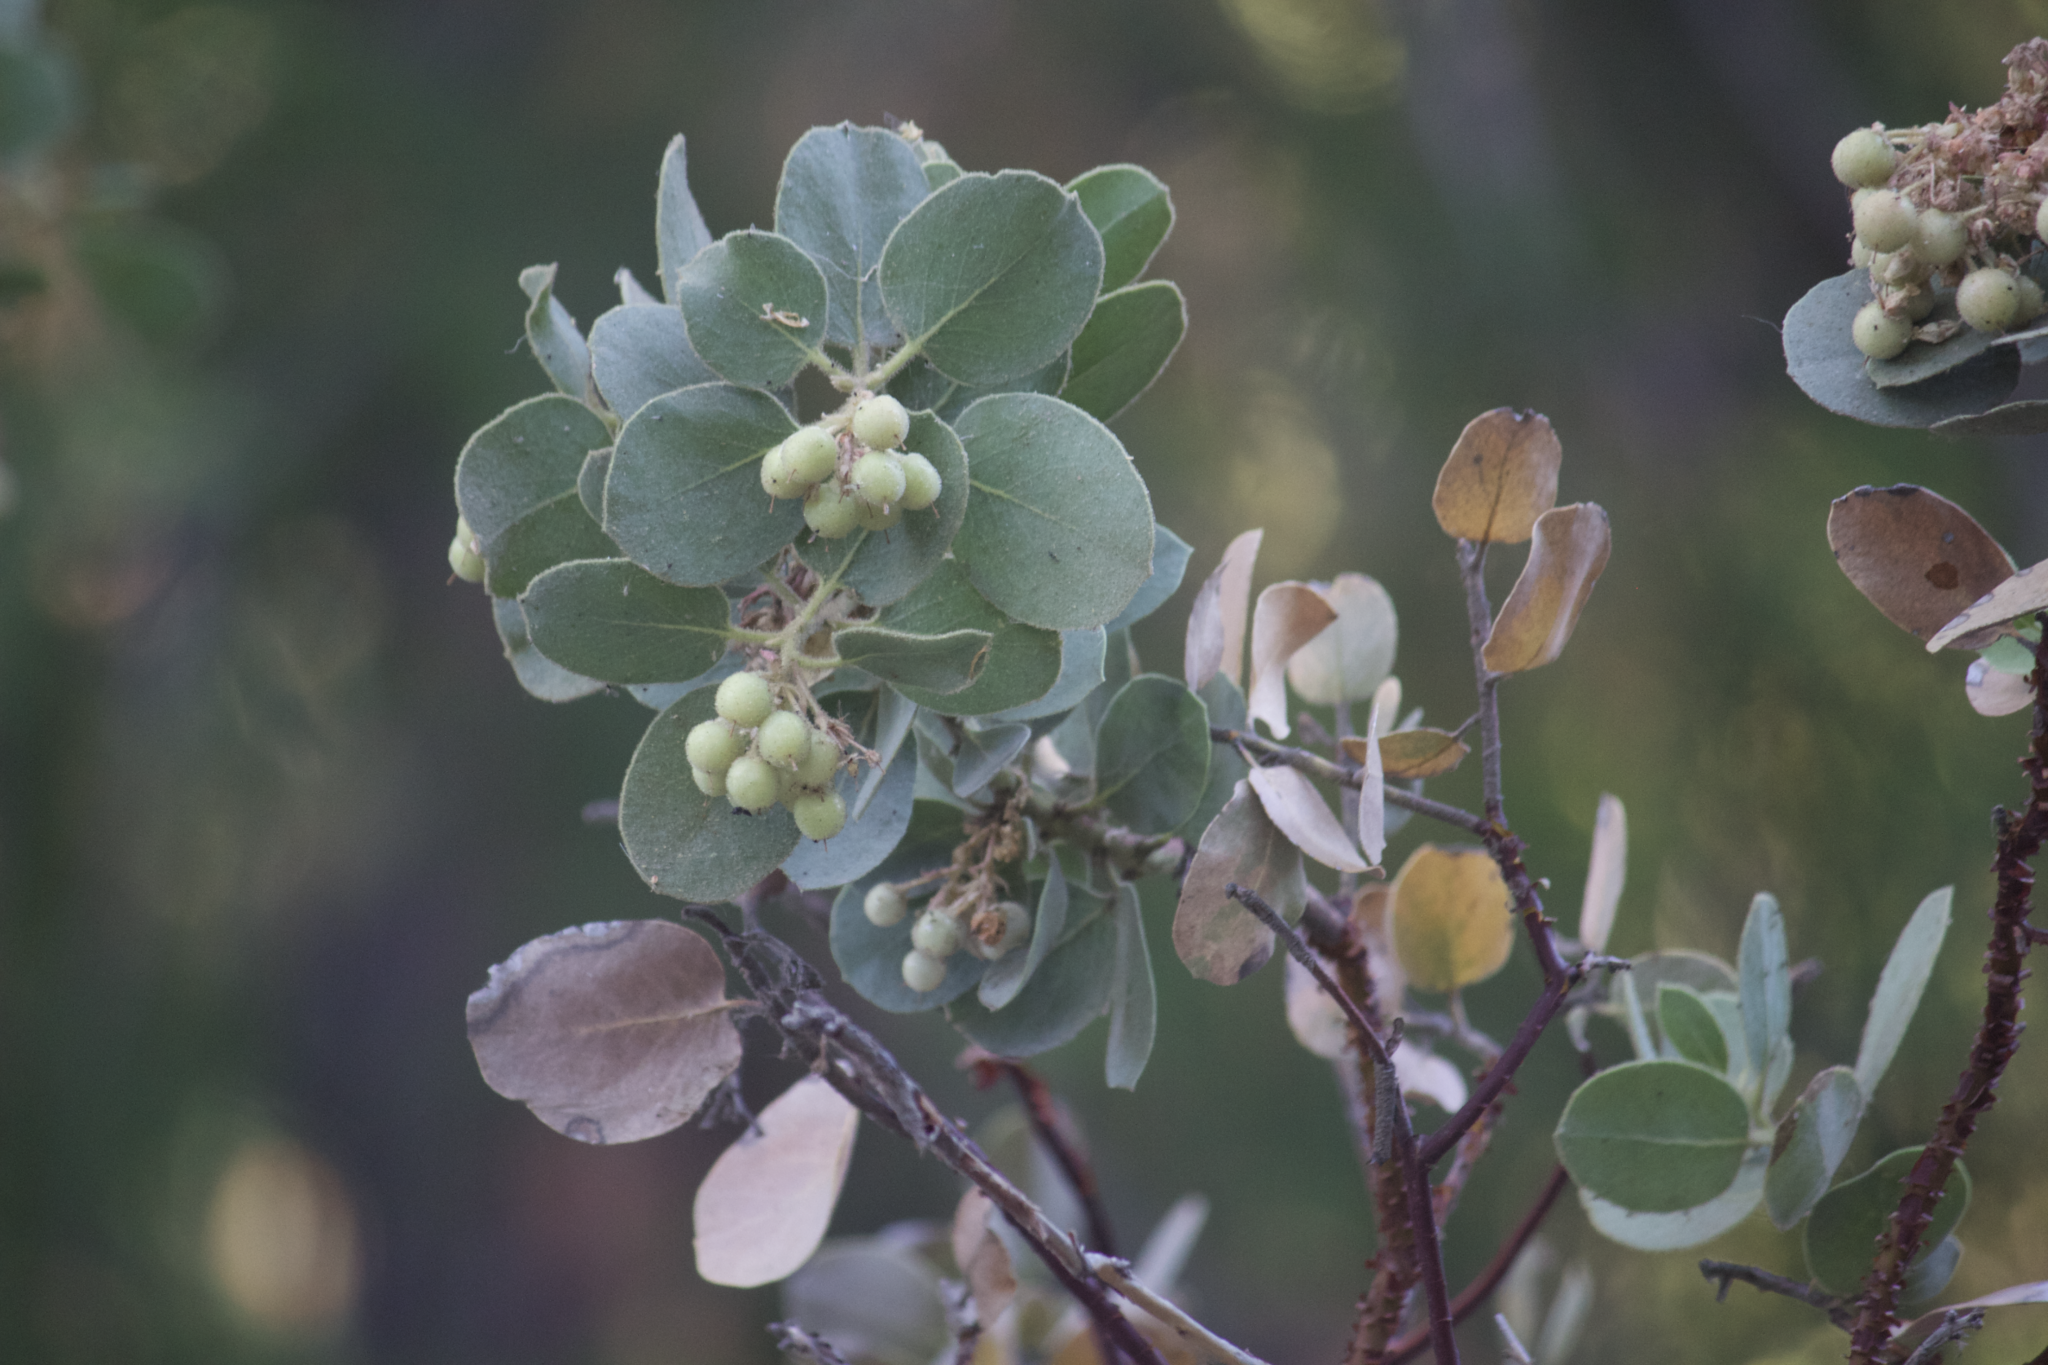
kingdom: Plantae
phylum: Tracheophyta
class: Magnoliopsida
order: Ericales
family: Ericaceae
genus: Arctostaphylos
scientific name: Arctostaphylos pringlei
